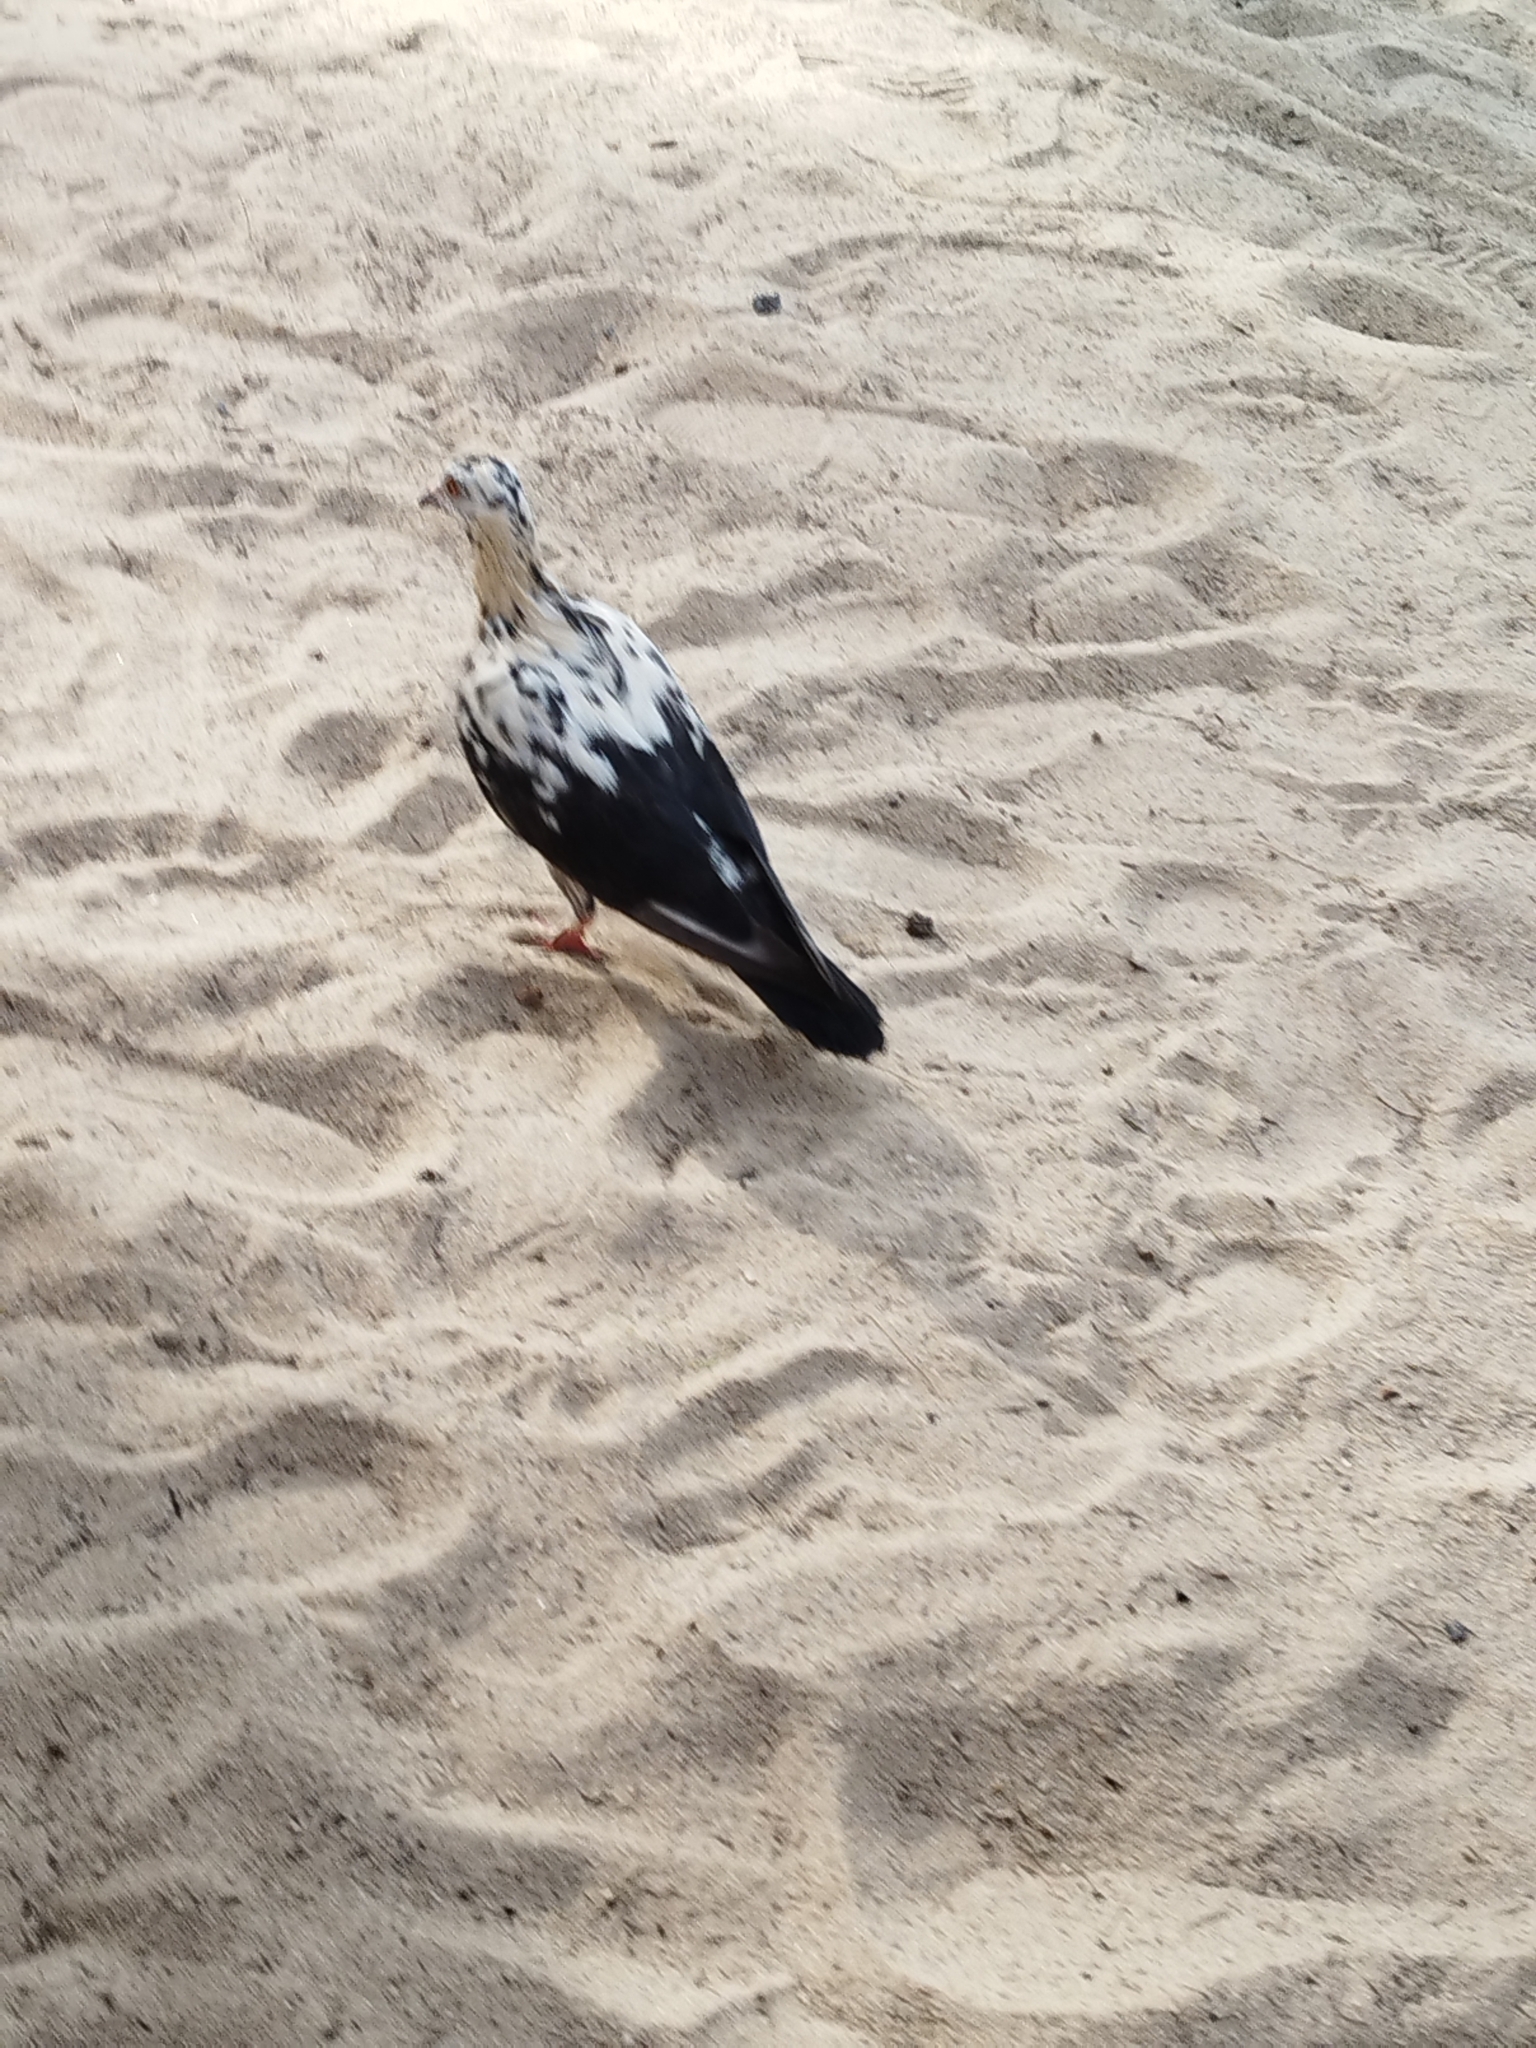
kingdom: Animalia
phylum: Chordata
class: Aves
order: Columbiformes
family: Columbidae
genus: Columba
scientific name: Columba livia
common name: Rock pigeon
